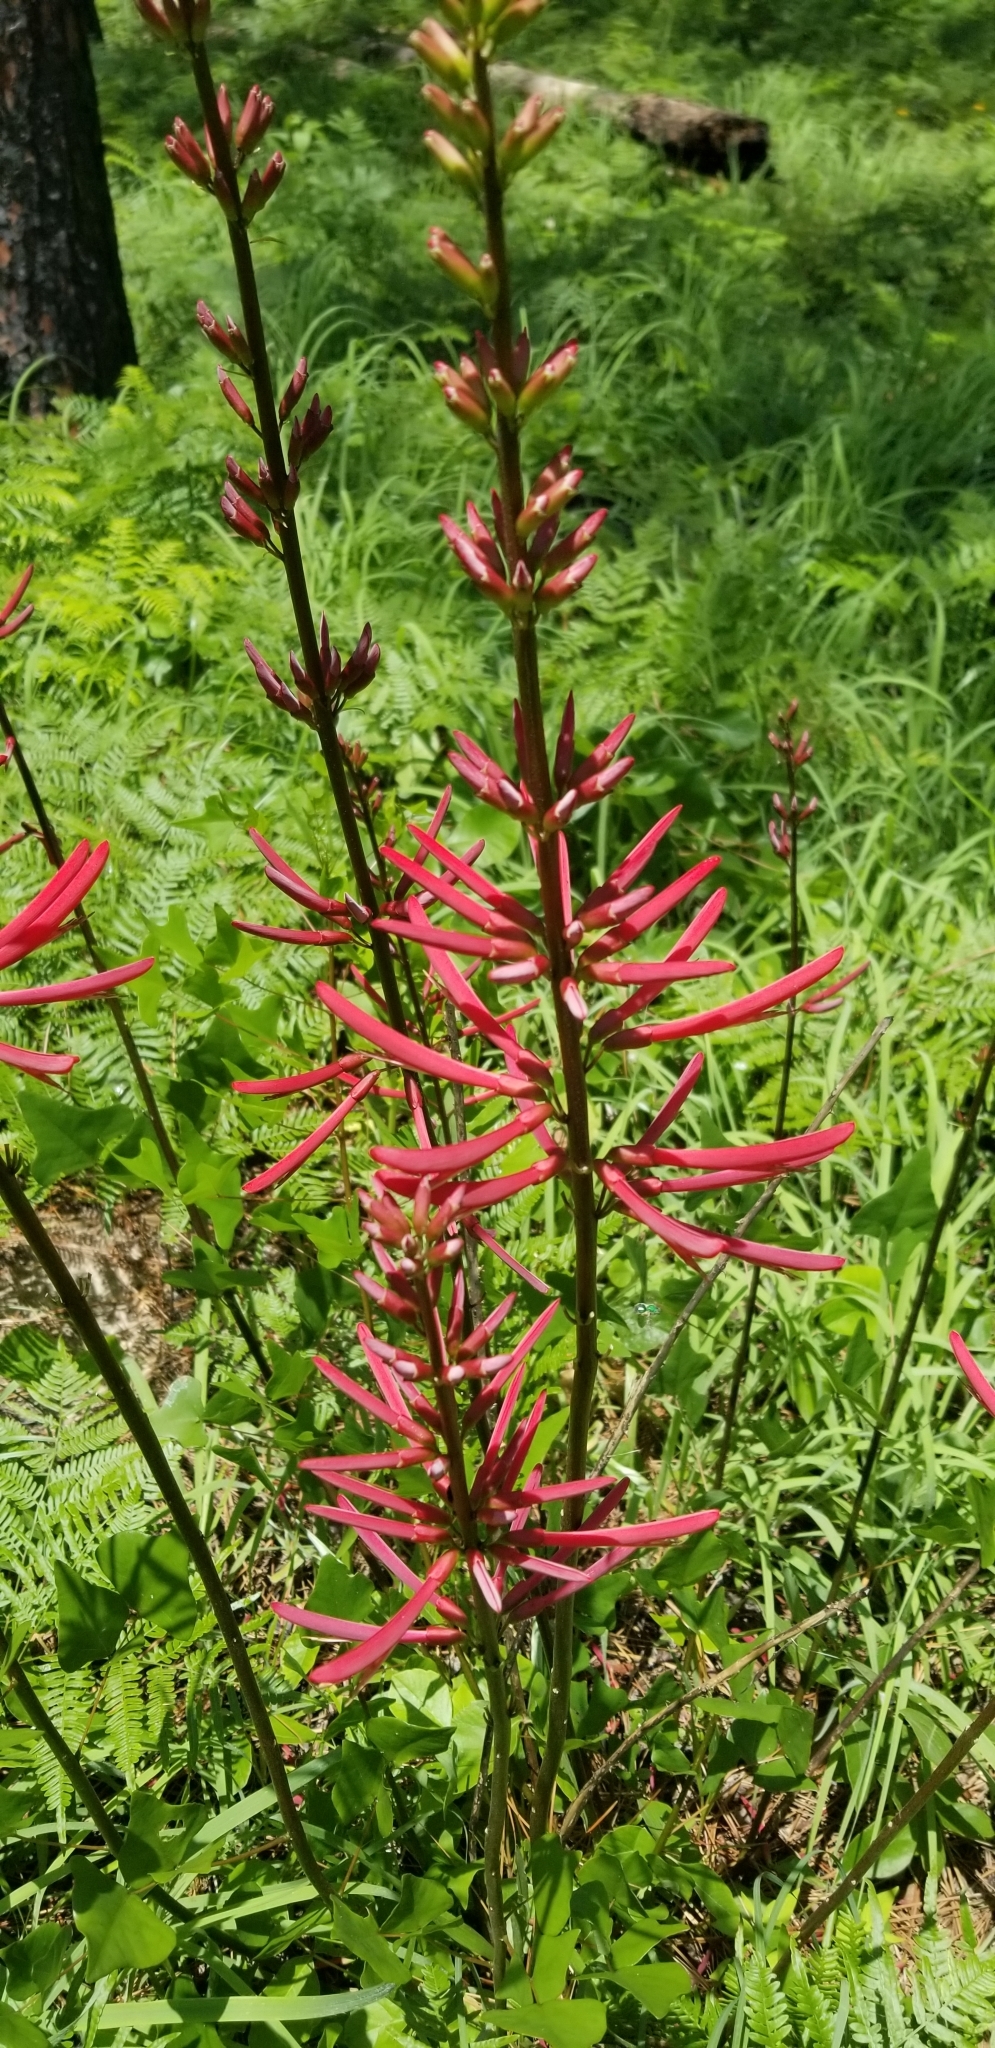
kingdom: Plantae
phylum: Tracheophyta
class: Magnoliopsida
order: Fabales
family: Fabaceae
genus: Erythrina
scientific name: Erythrina herbacea
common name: Coral-bean
